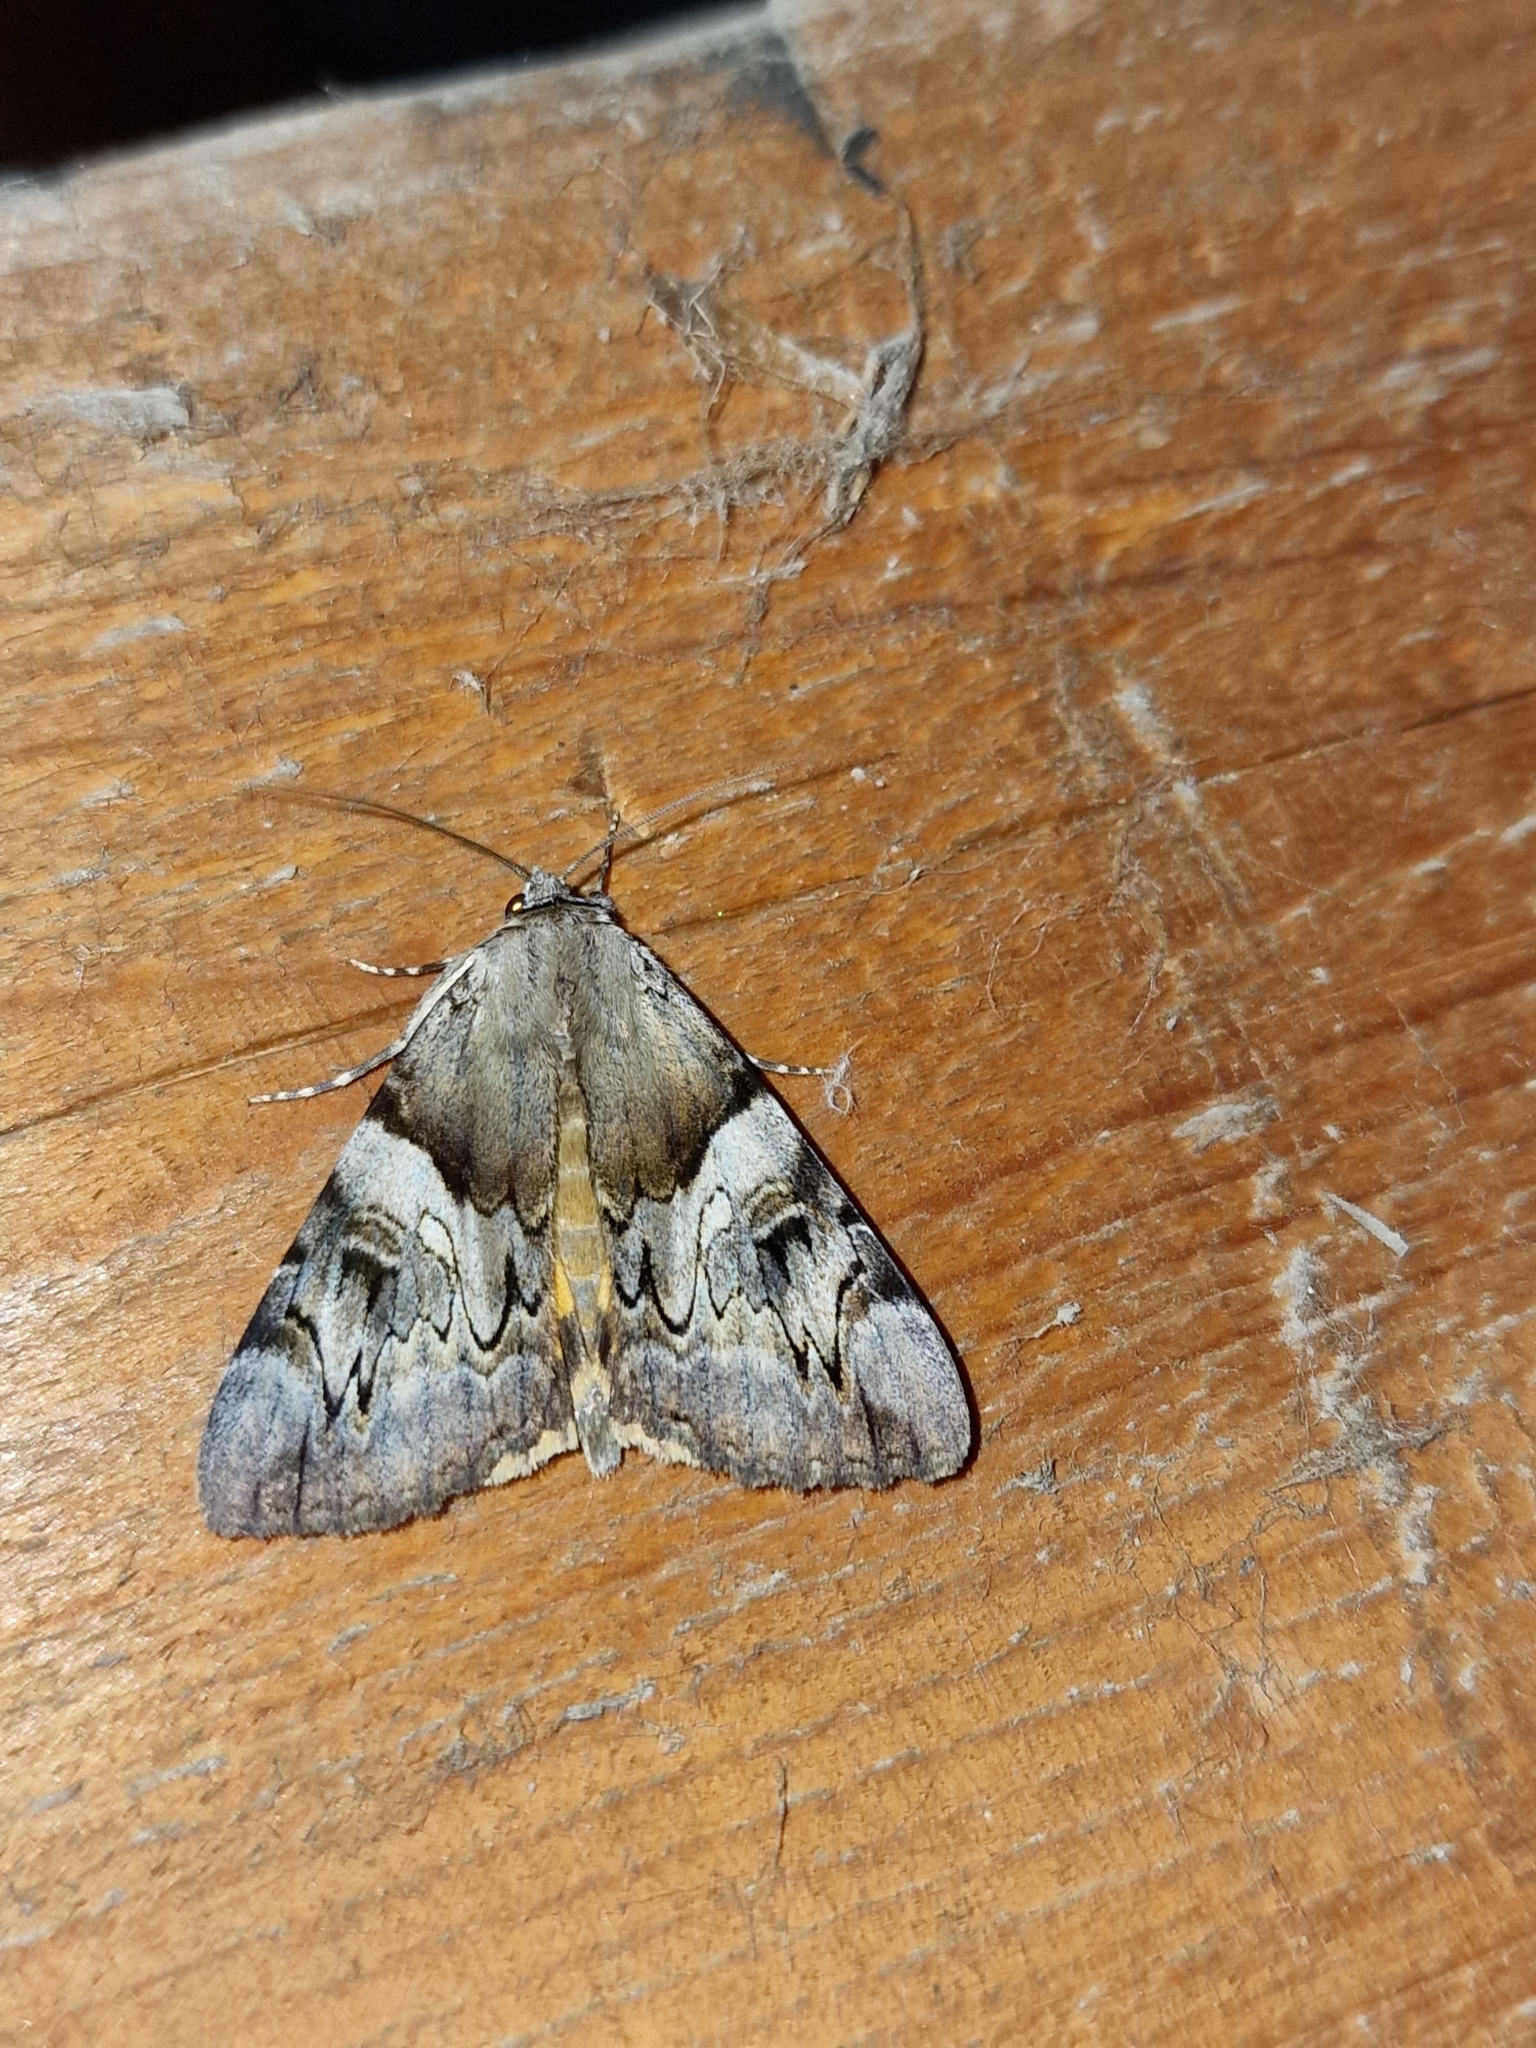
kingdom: Animalia
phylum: Arthropoda
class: Insecta
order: Lepidoptera
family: Erebidae
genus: Catocala
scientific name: Catocala fulminea
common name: Yellow bands underwing
